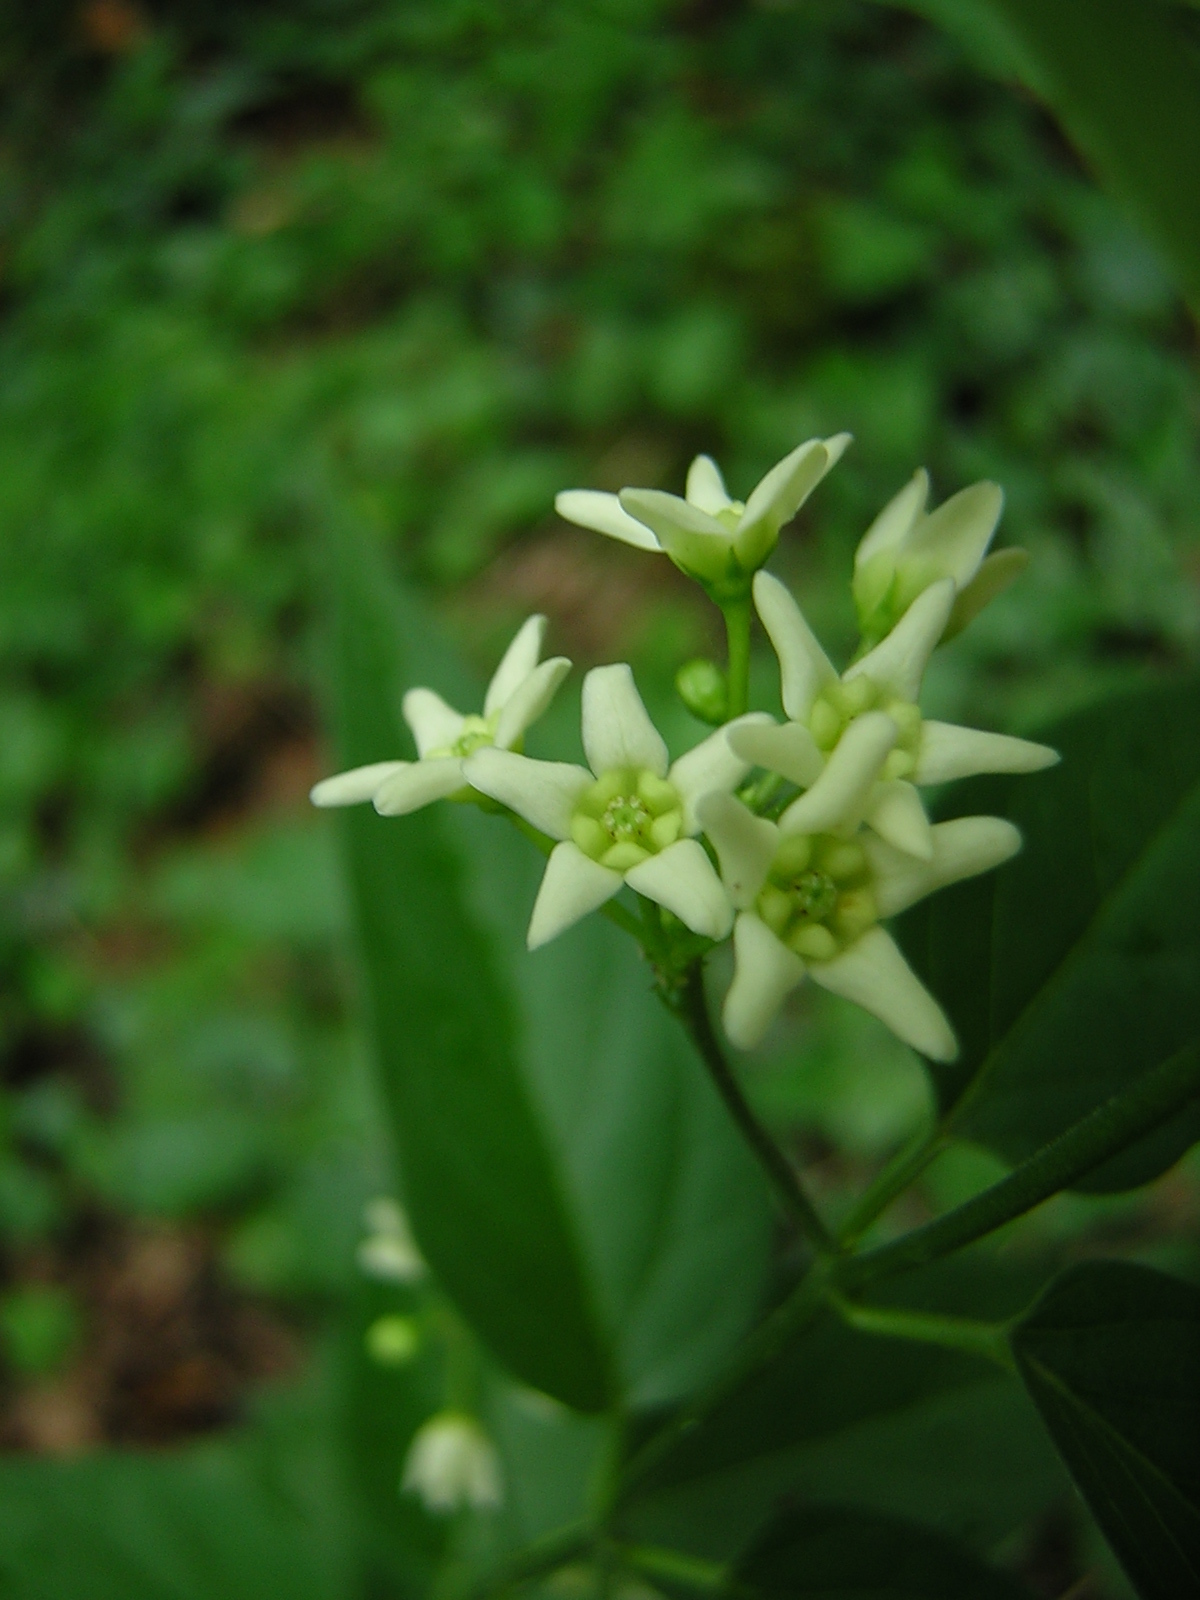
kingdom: Plantae
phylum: Tracheophyta
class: Magnoliopsida
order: Gentianales
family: Apocynaceae
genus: Vincetoxicum
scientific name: Vincetoxicum hirundinaria
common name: White swallowwort
